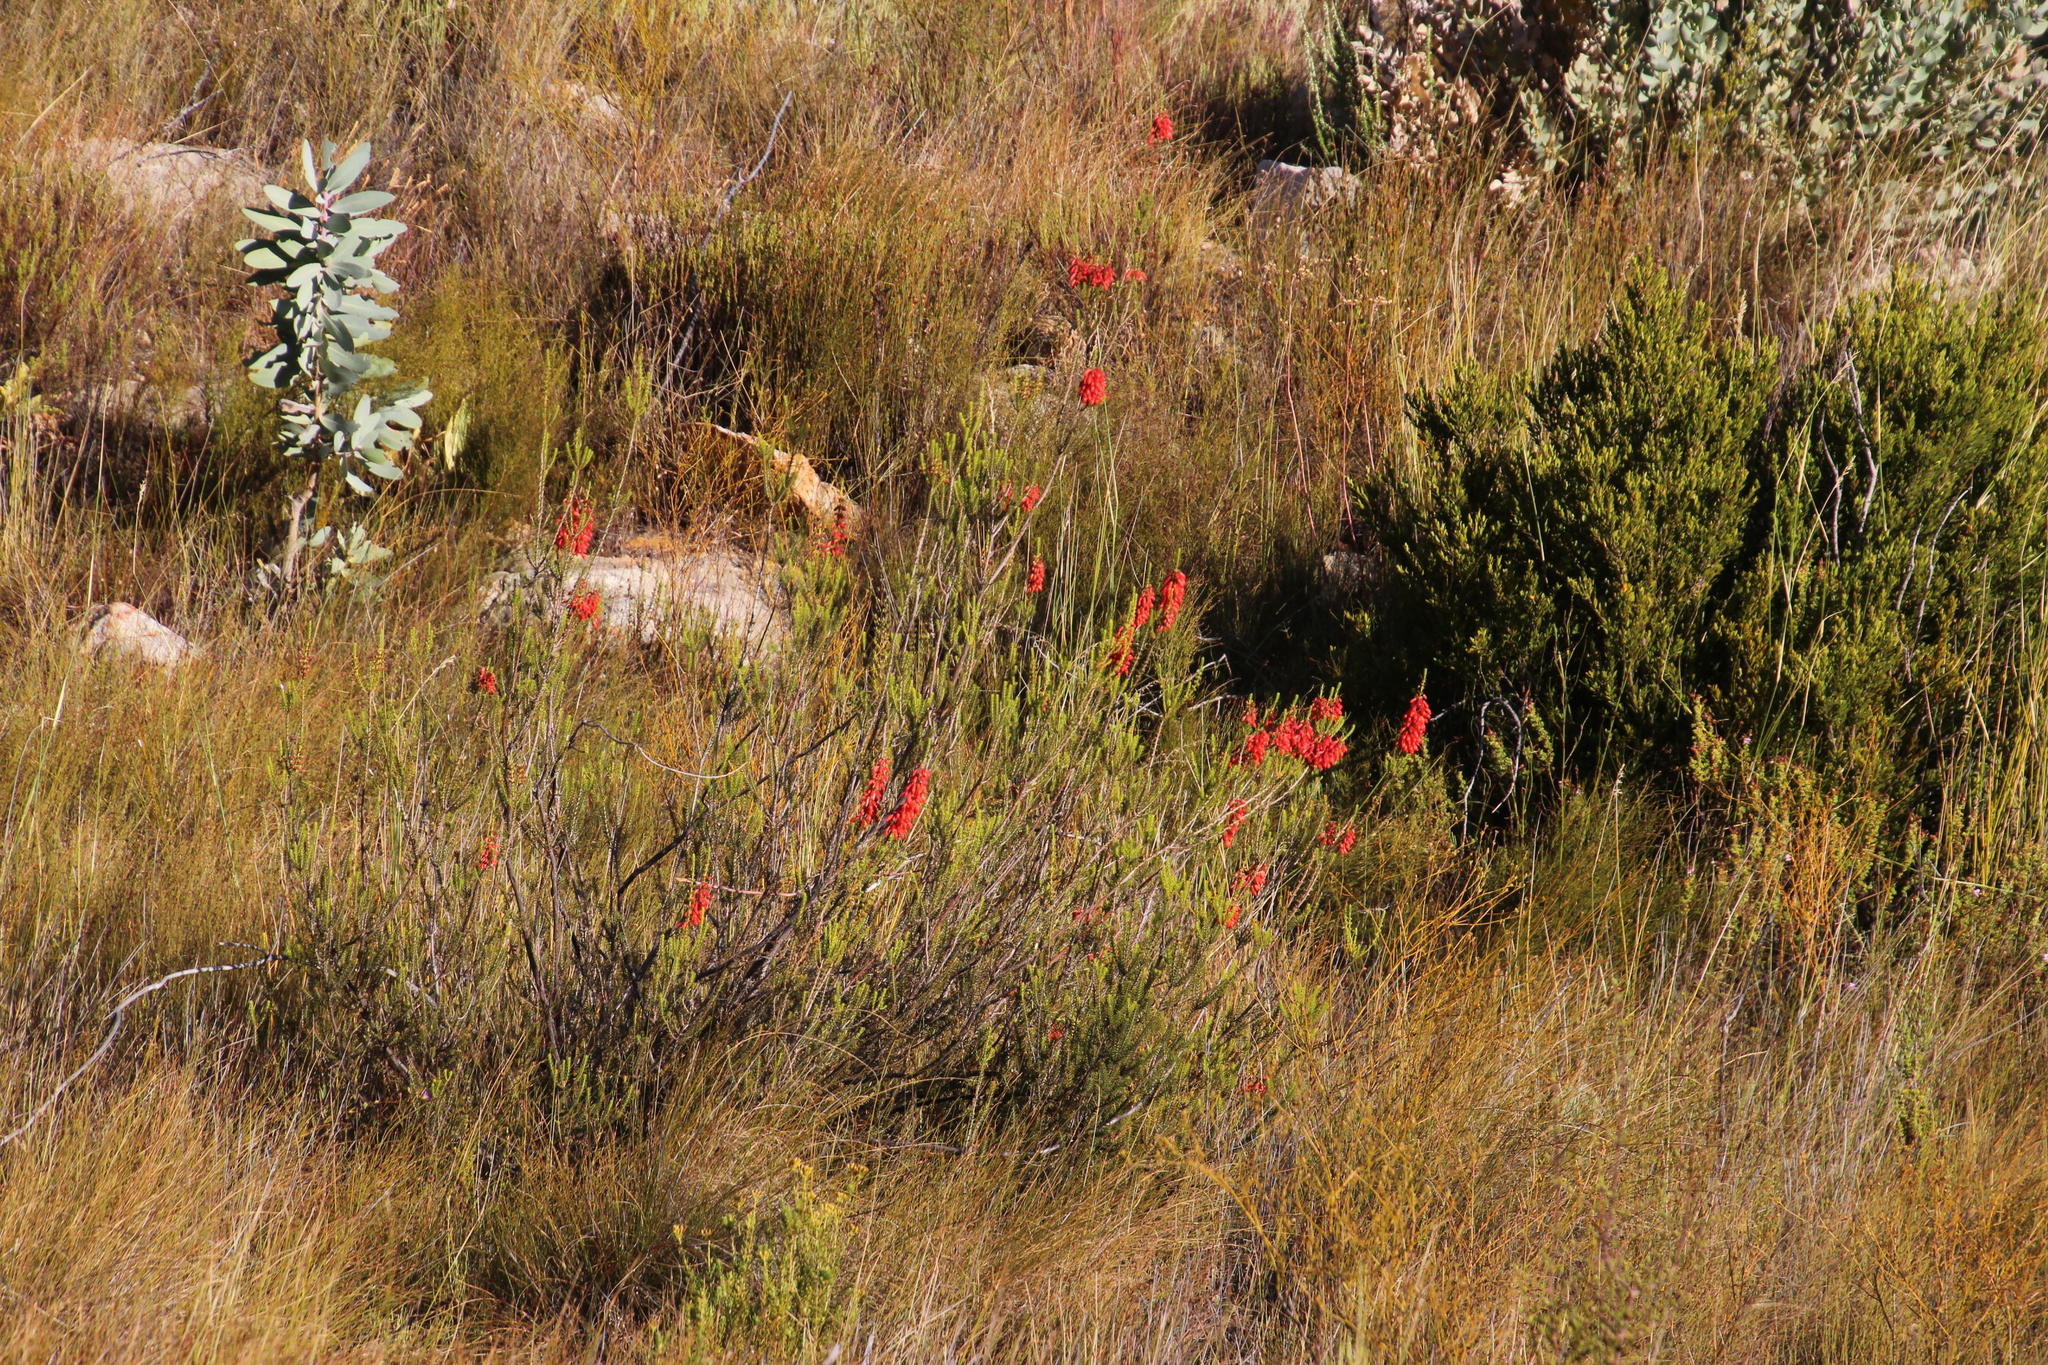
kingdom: Plantae
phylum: Tracheophyta
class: Magnoliopsida
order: Ericales
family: Ericaceae
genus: Erica
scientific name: Erica mammosa
